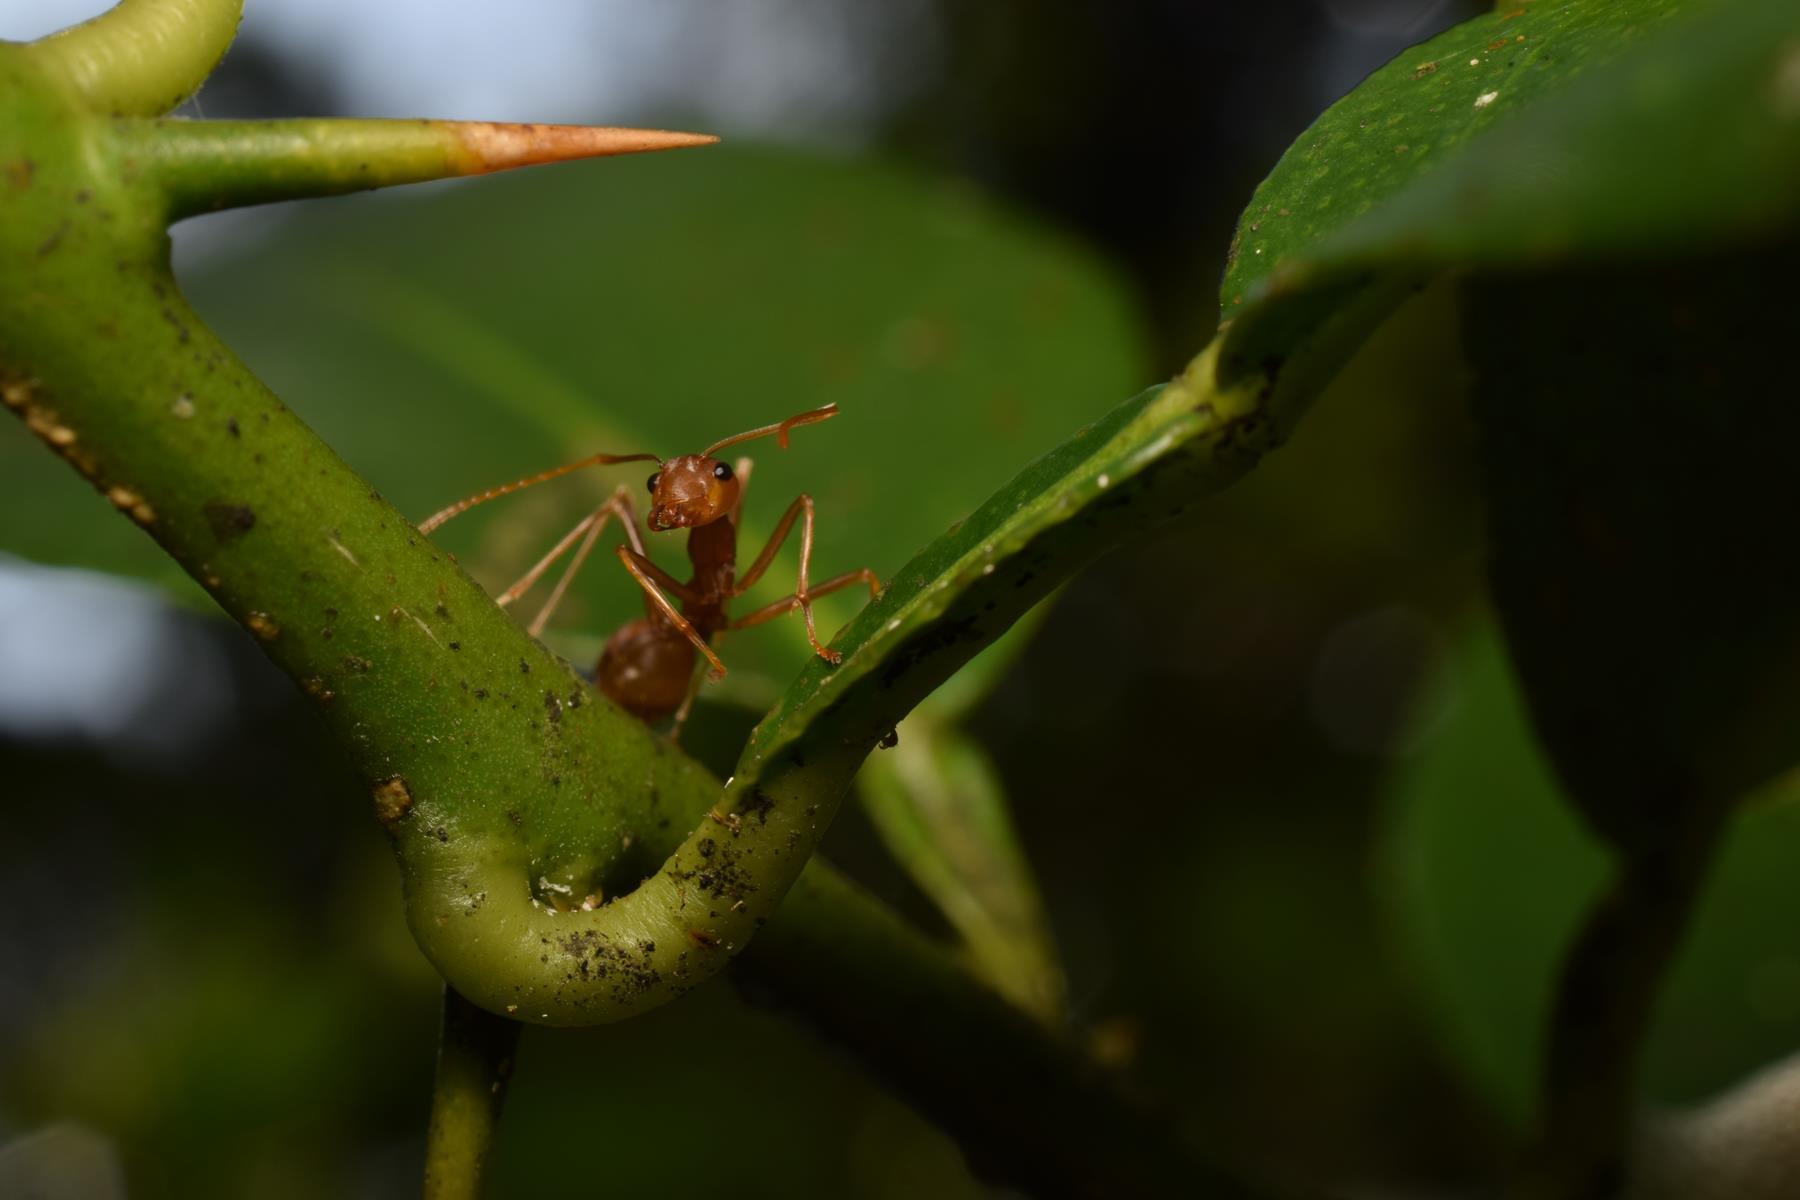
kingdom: Animalia
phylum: Arthropoda
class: Insecta
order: Hymenoptera
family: Formicidae
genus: Oecophylla
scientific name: Oecophylla smaragdina
